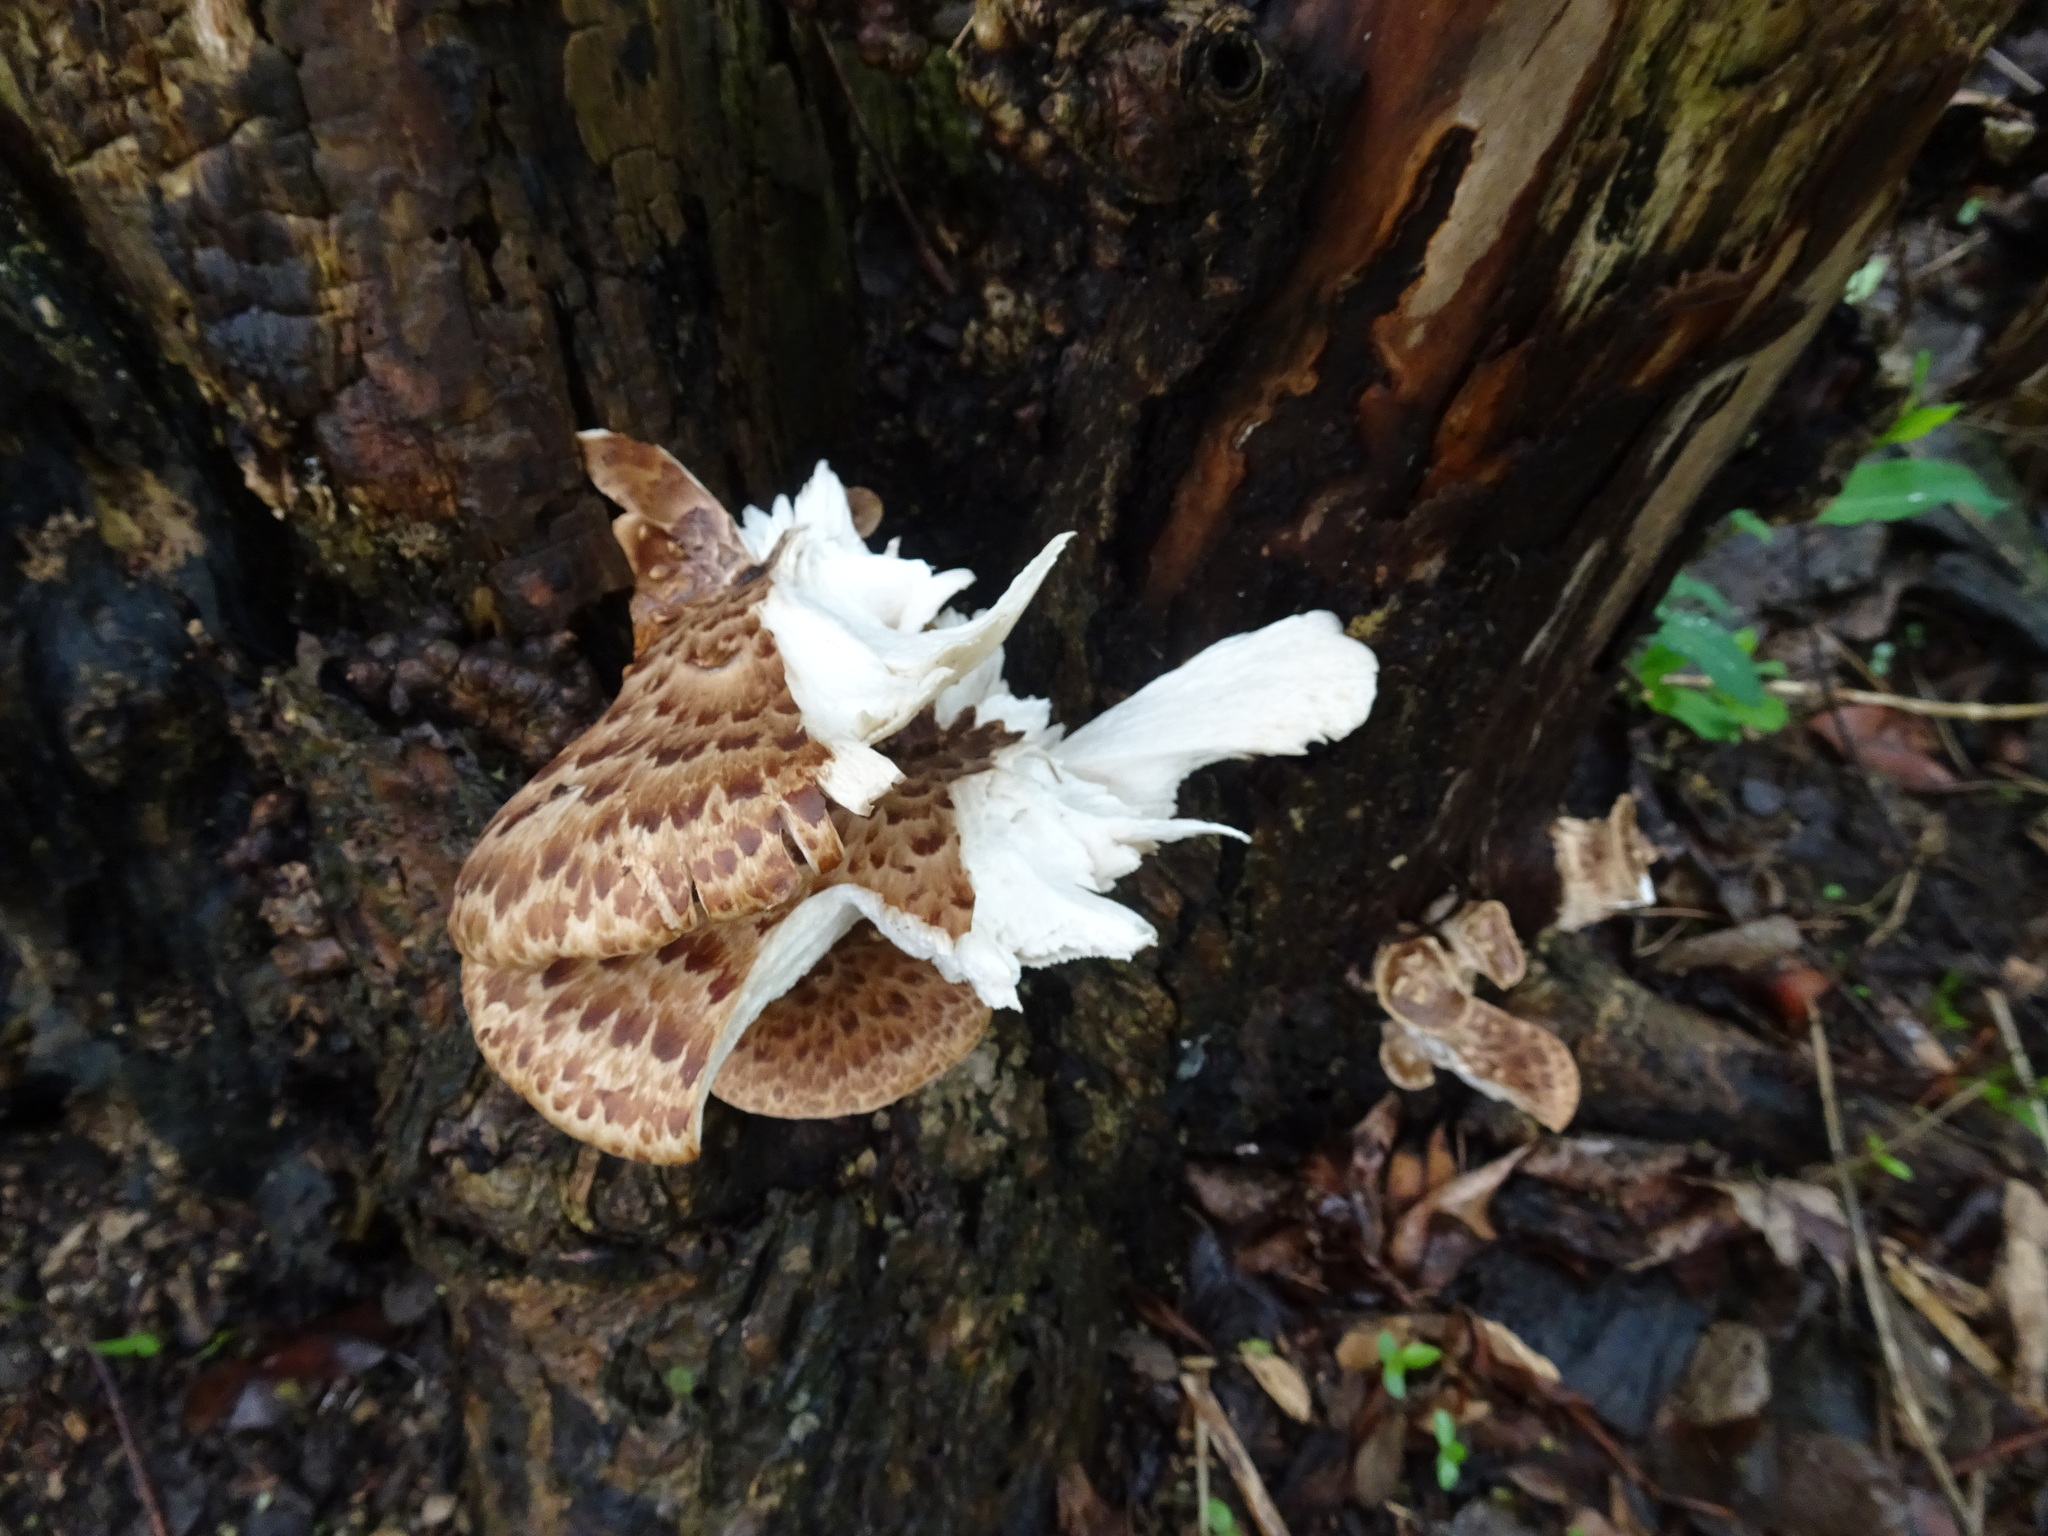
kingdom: Fungi
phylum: Basidiomycota
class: Agaricomycetes
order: Polyporales
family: Polyporaceae
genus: Cerioporus
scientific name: Cerioporus squamosus
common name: Dryad's saddle
